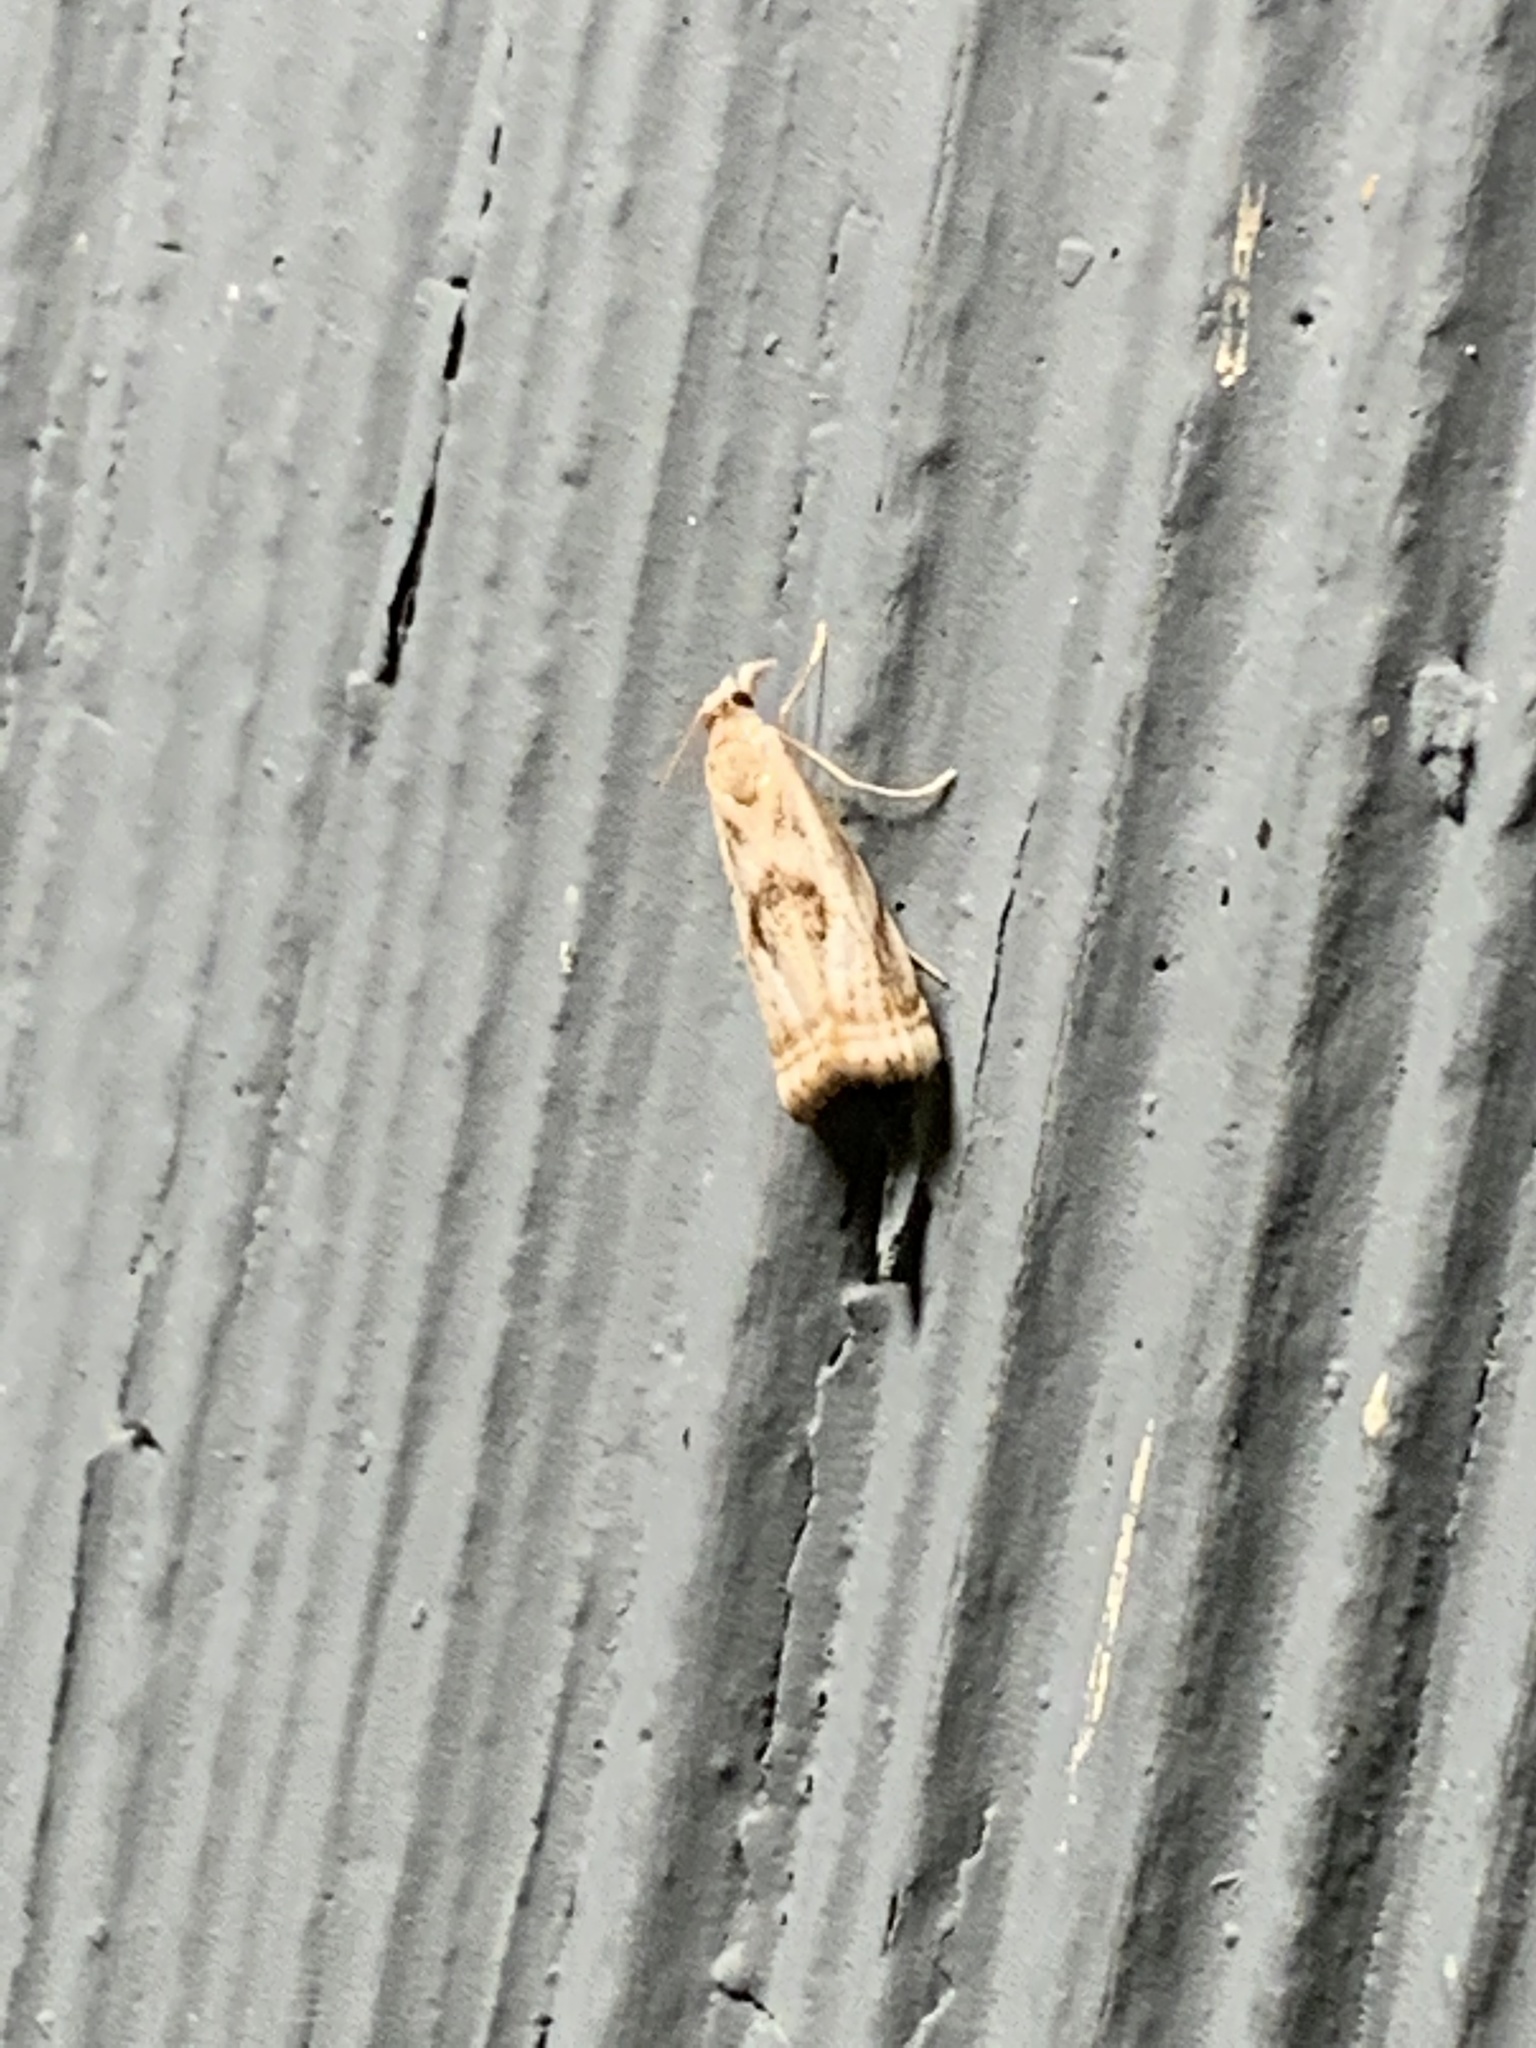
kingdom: Animalia
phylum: Arthropoda
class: Insecta
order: Lepidoptera
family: Crambidae
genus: Microcrambus
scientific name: Microcrambus elegans
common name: Elegant grass-veneer
